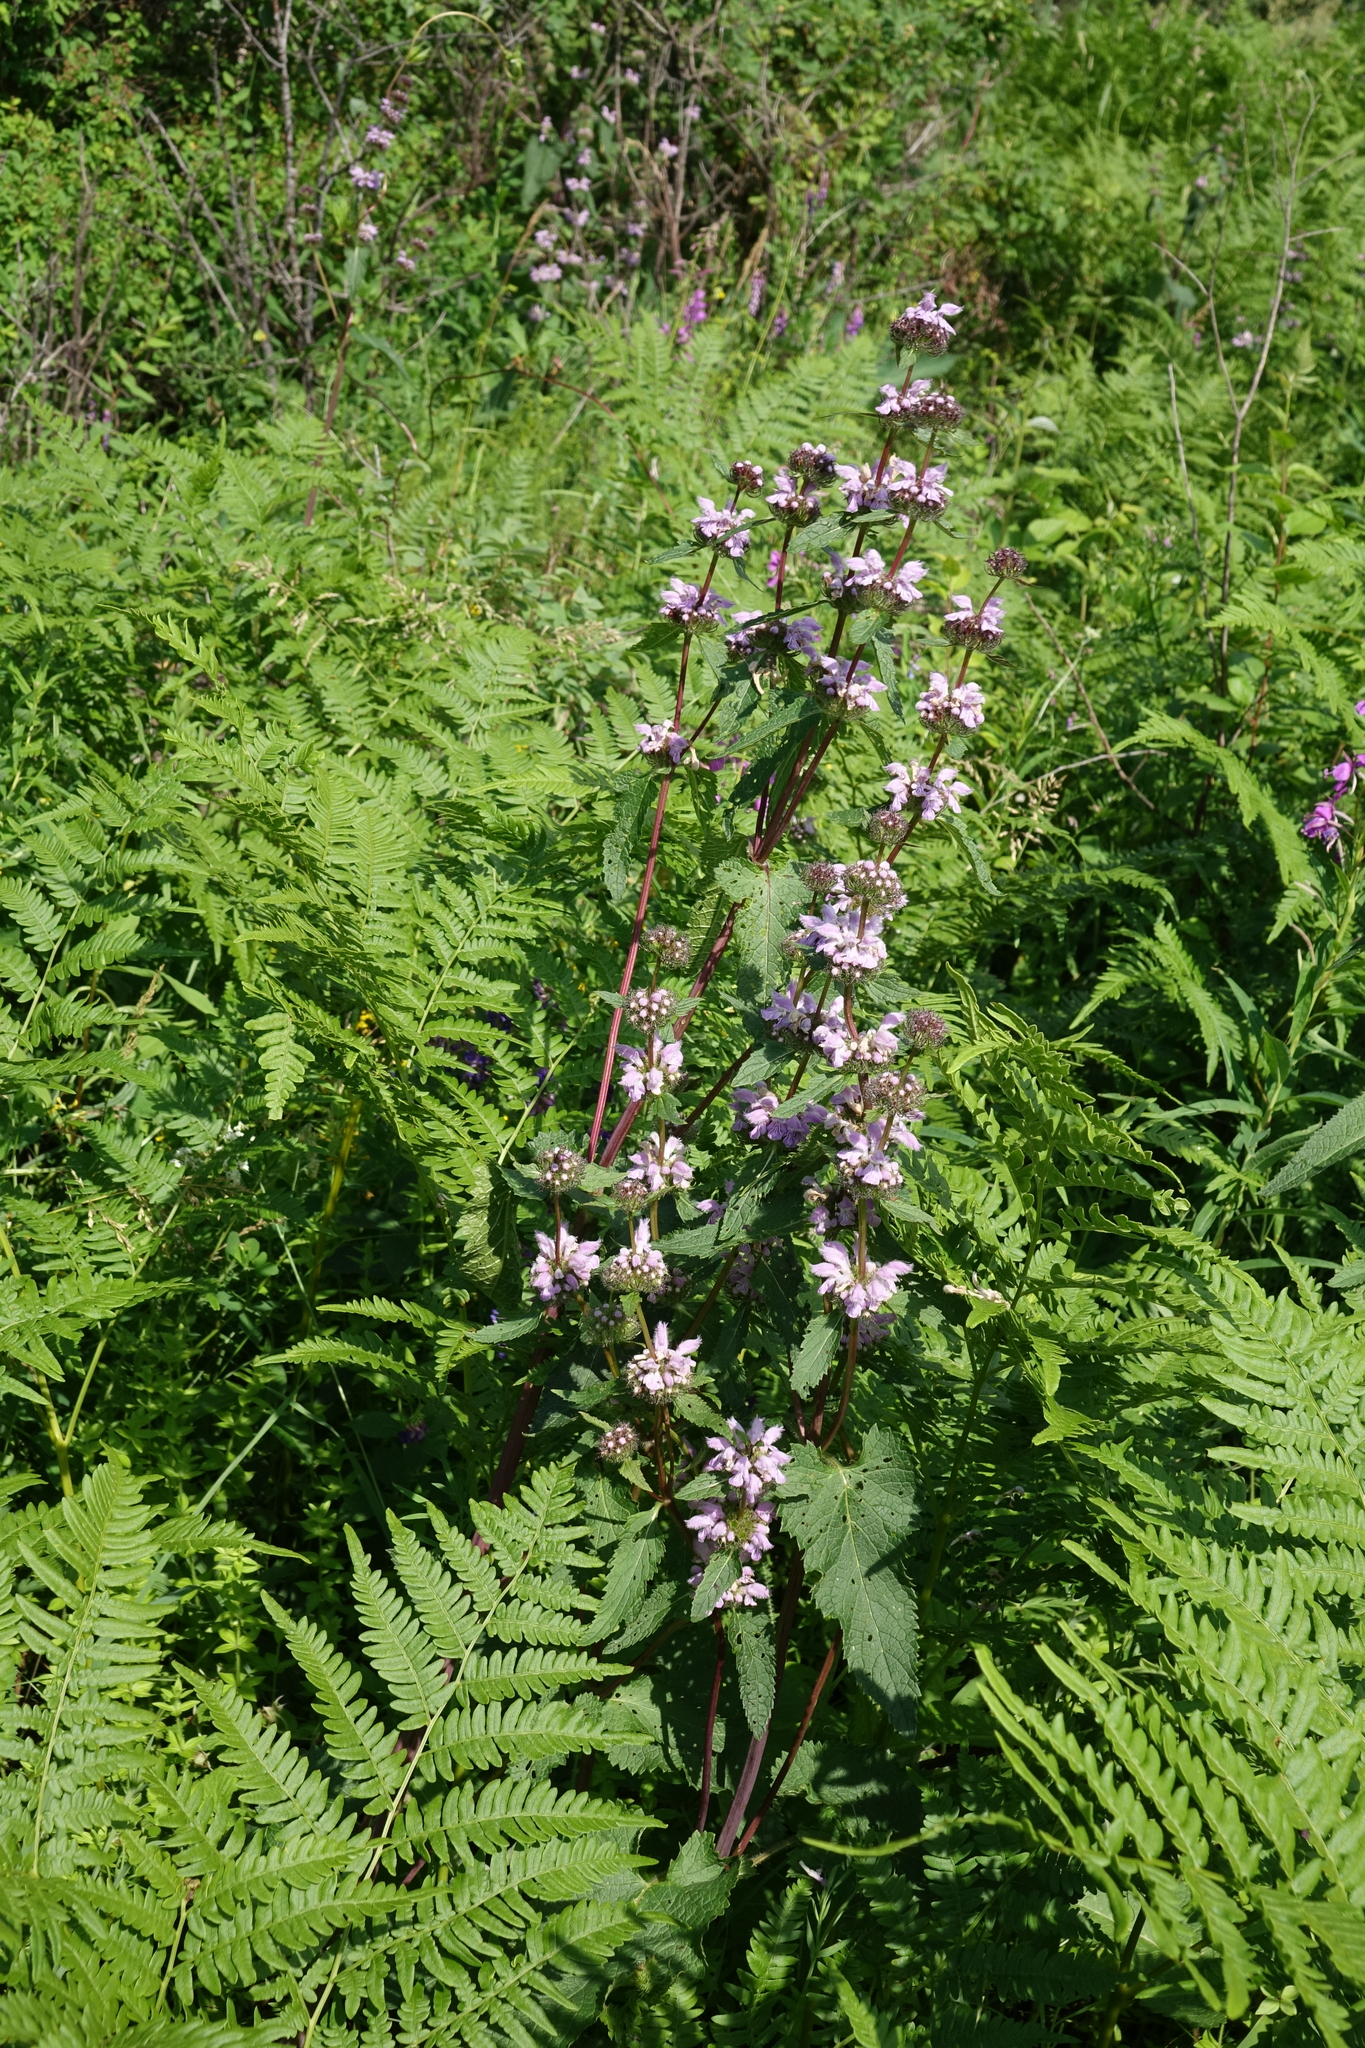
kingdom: Plantae
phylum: Tracheophyta
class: Magnoliopsida
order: Lamiales
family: Lamiaceae
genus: Phlomoides
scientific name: Phlomoides tuberosa
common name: Tuberous jerusalem sage
